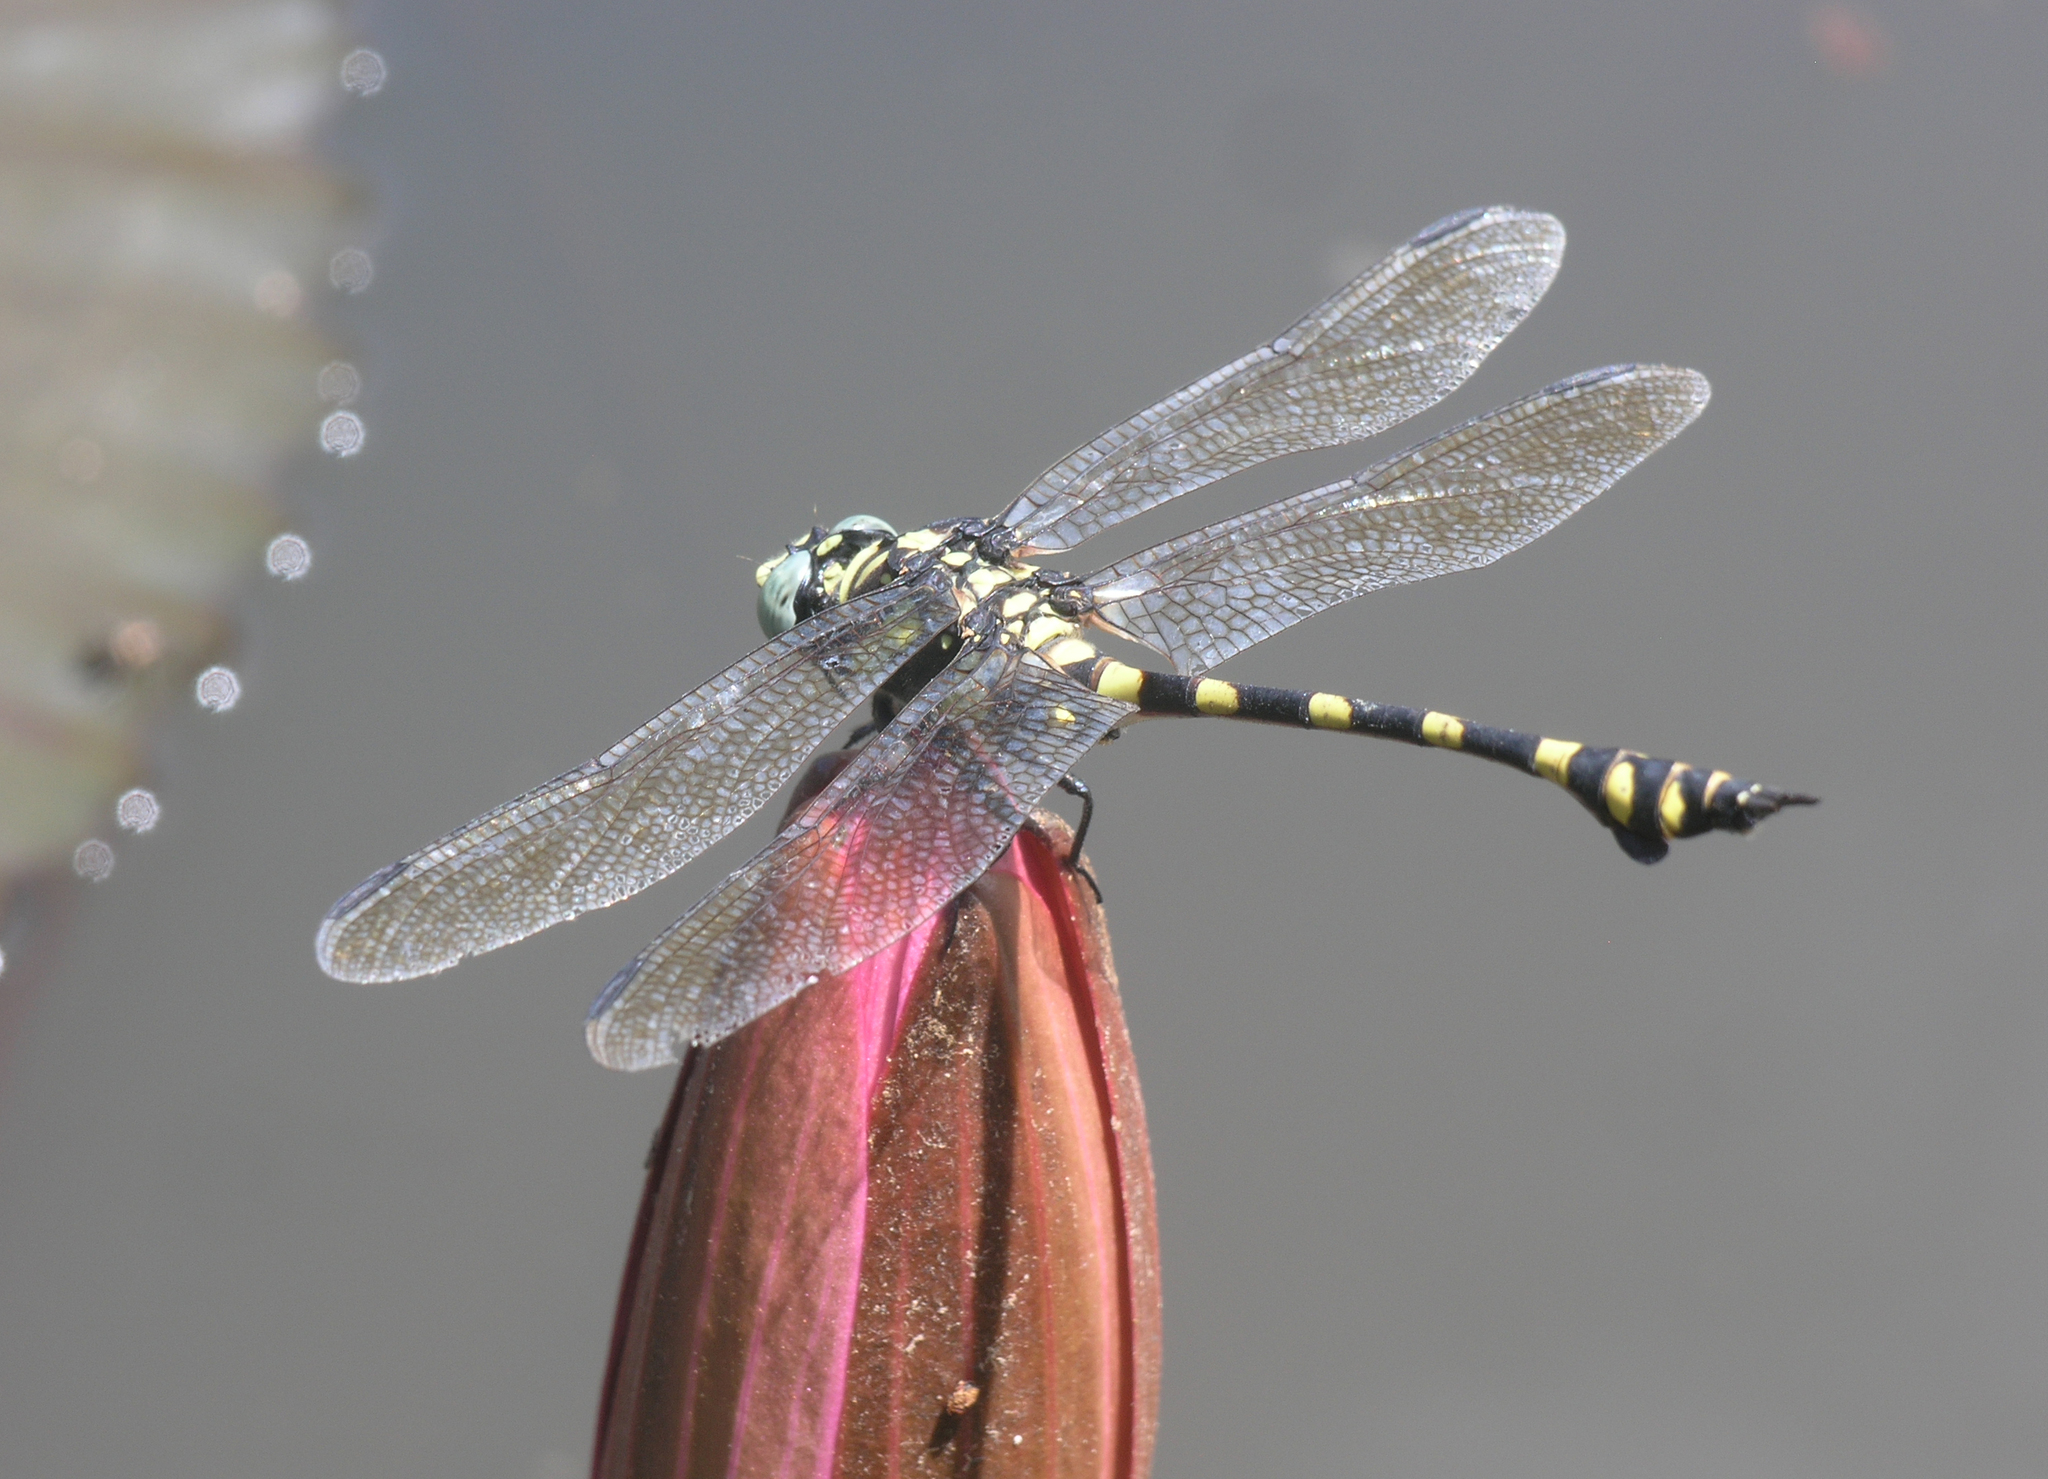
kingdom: Animalia
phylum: Arthropoda
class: Insecta
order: Odonata
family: Gomphidae
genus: Ictinogomphus
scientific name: Ictinogomphus decoratus
